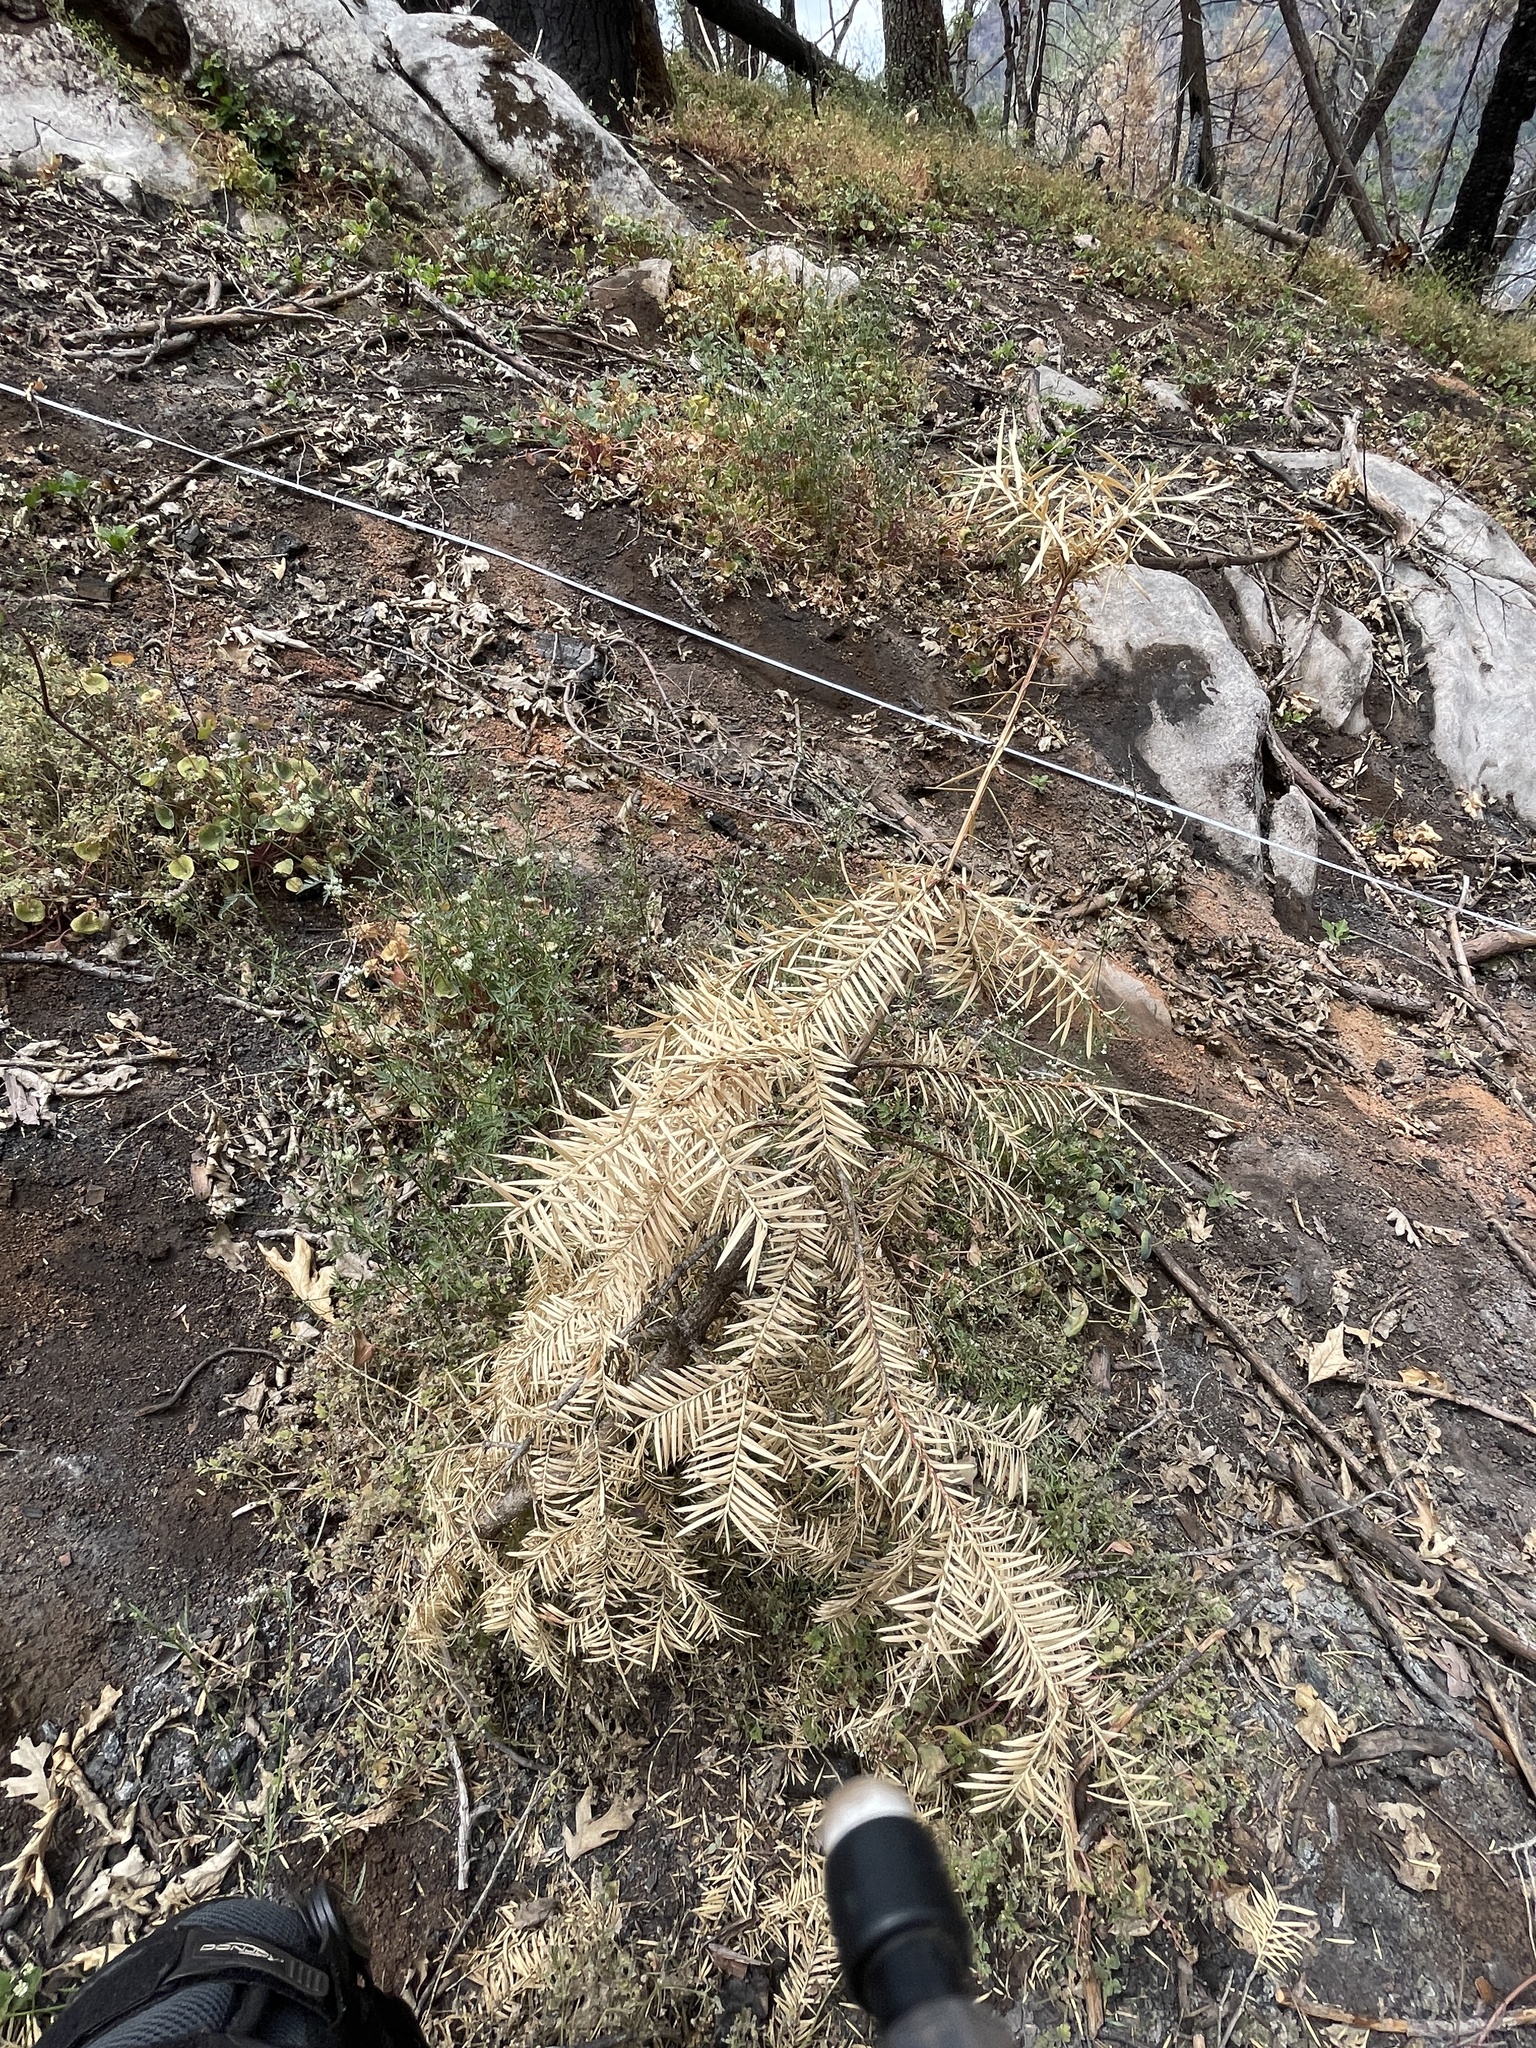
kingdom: Plantae
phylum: Tracheophyta
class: Pinopsida
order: Pinales
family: Taxaceae
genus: Torreya
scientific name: Torreya californica
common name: California torreya
